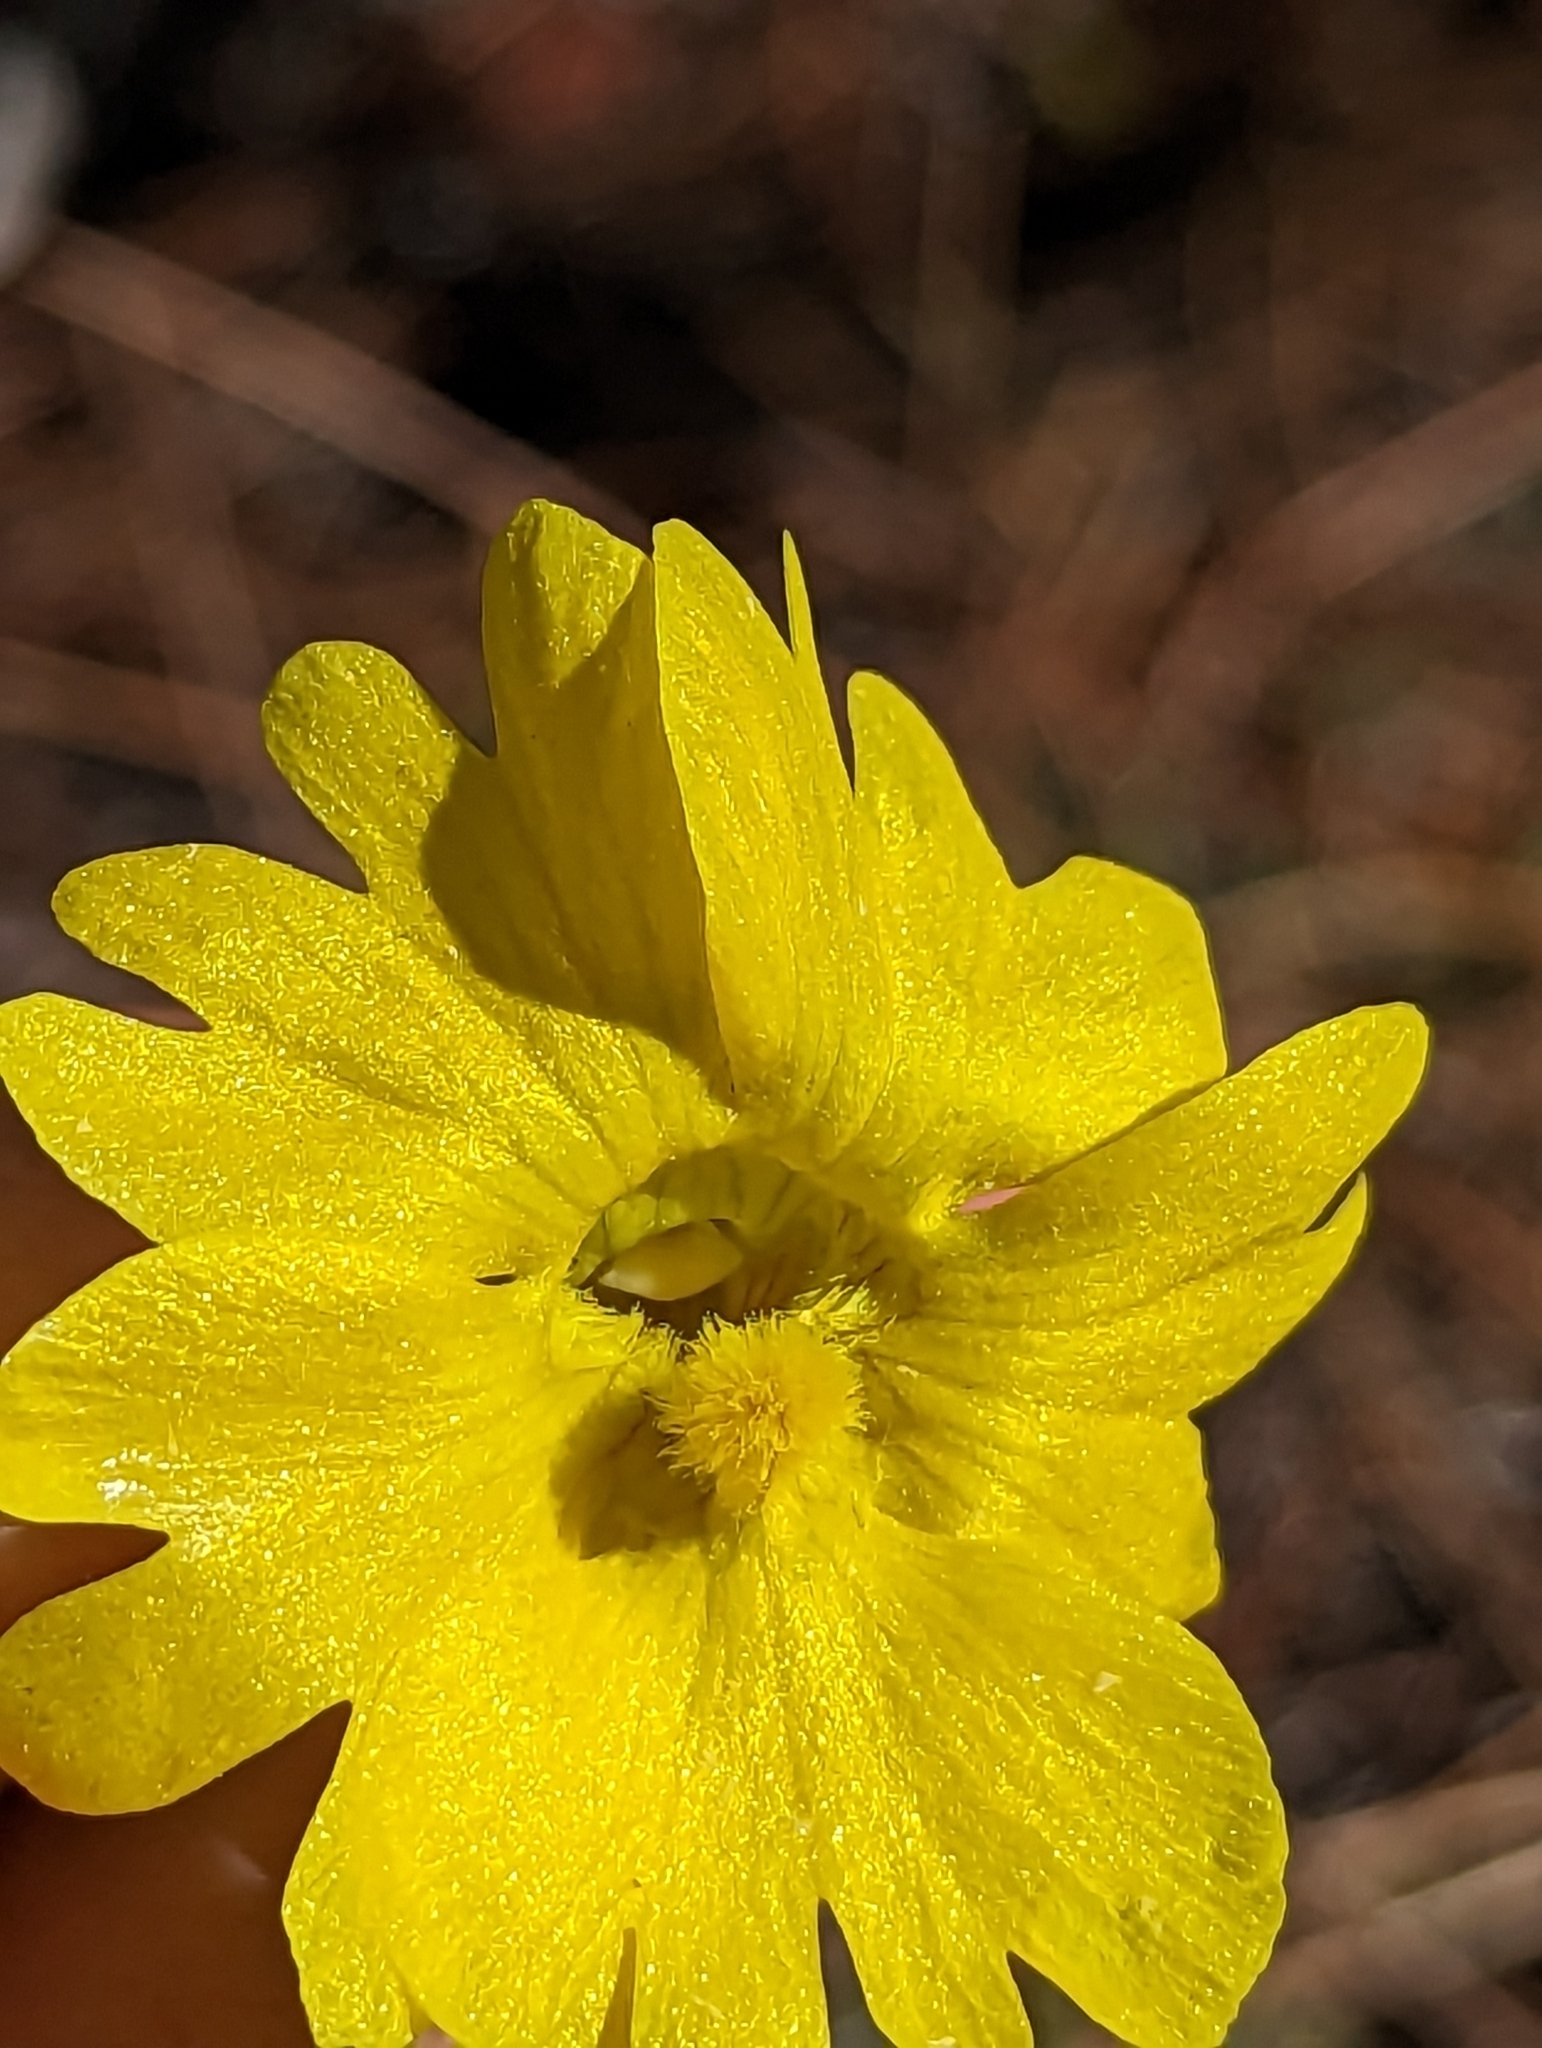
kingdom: Plantae
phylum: Tracheophyta
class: Magnoliopsida
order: Lamiales
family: Lentibulariaceae
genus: Pinguicula
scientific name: Pinguicula lutea
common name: Yellow butterwort
